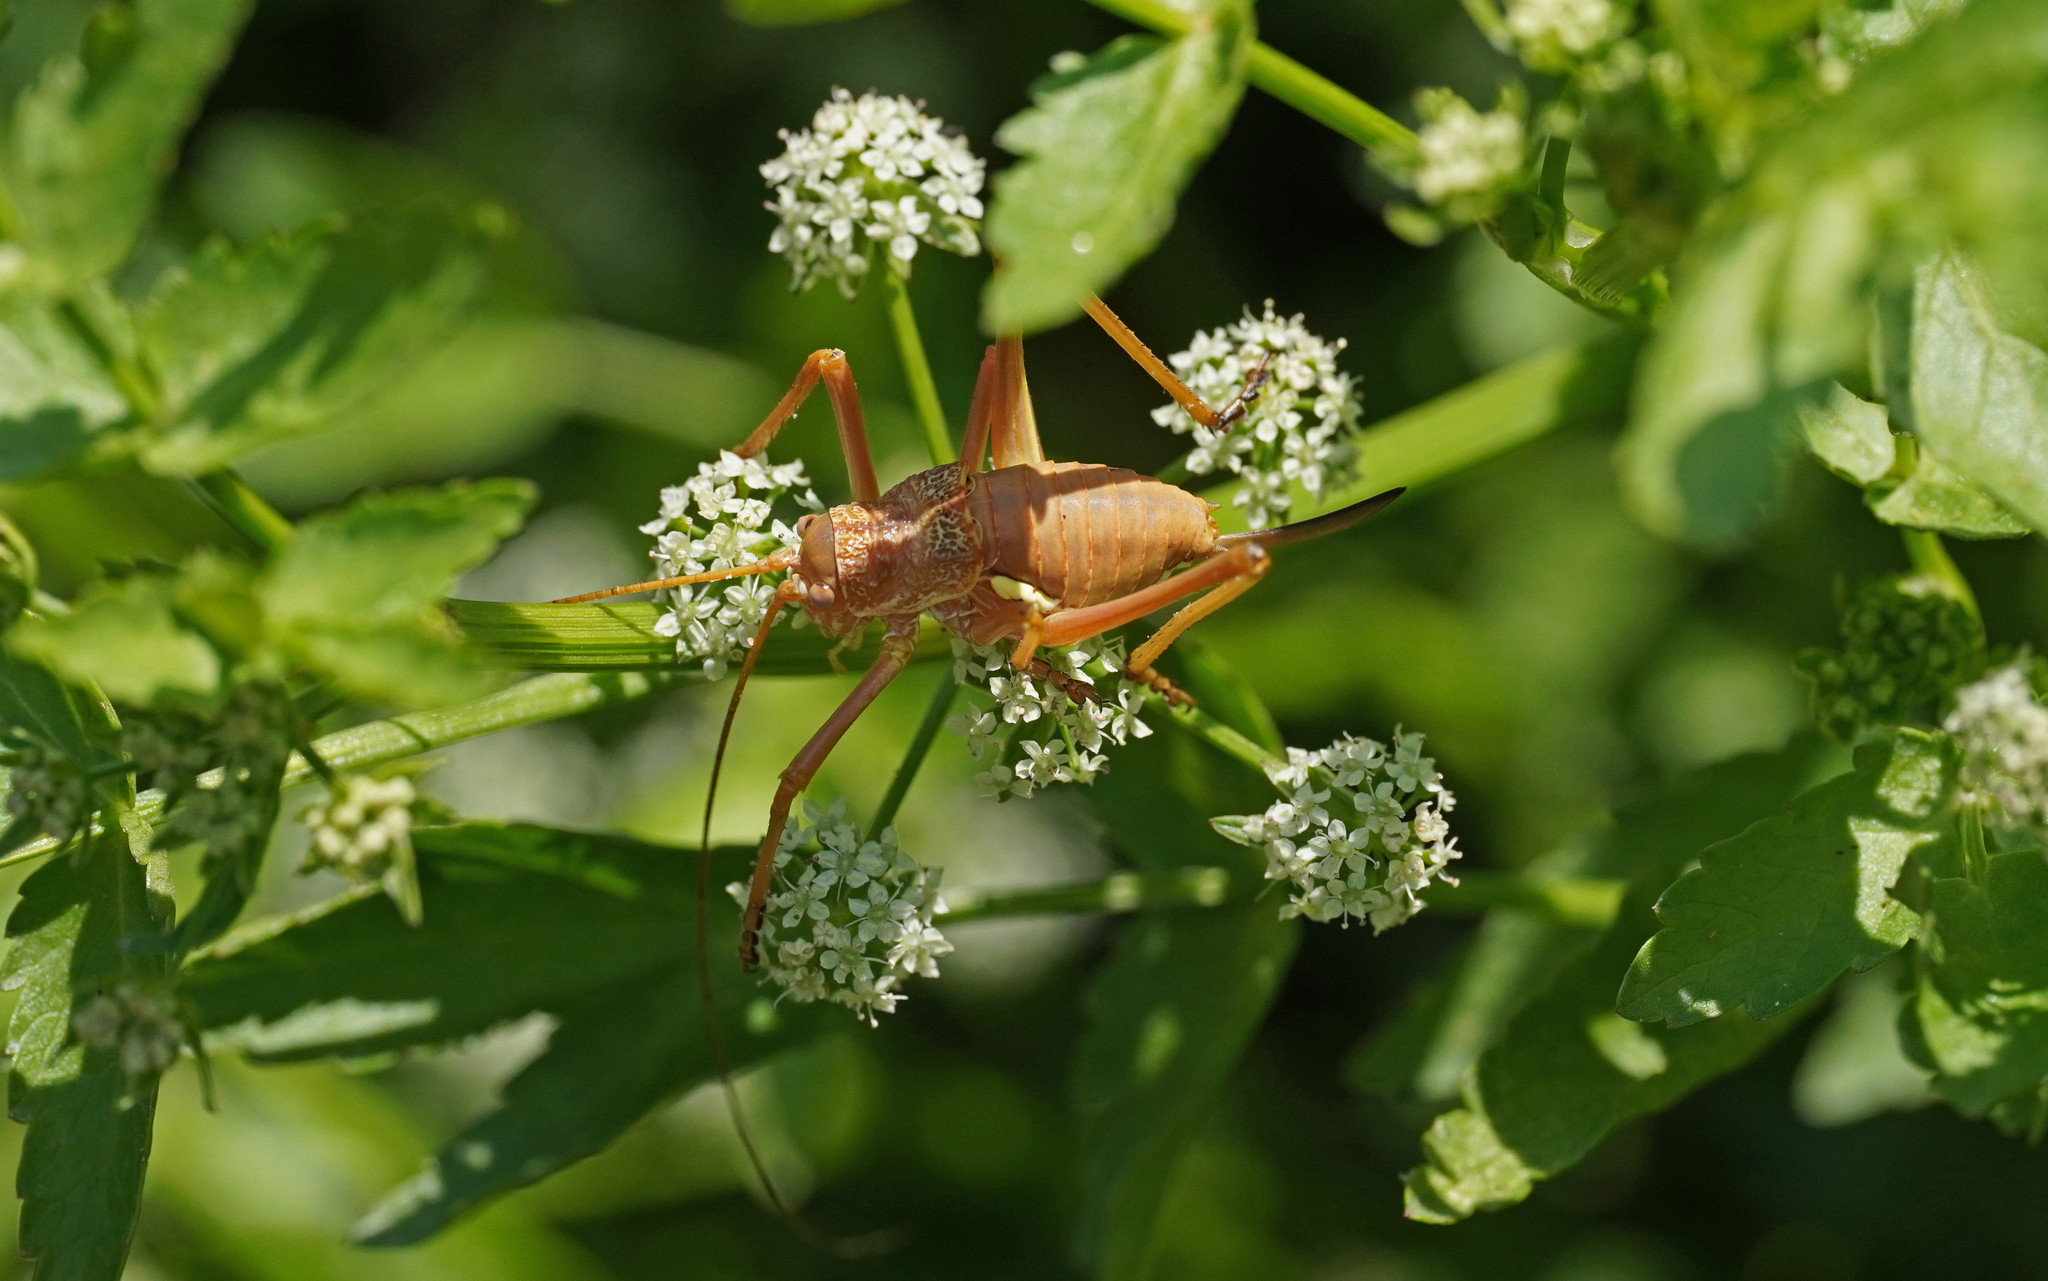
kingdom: Animalia
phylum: Arthropoda
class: Insecta
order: Orthoptera
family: Tettigoniidae
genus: Uromenus
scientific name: Uromenus brevicollis
